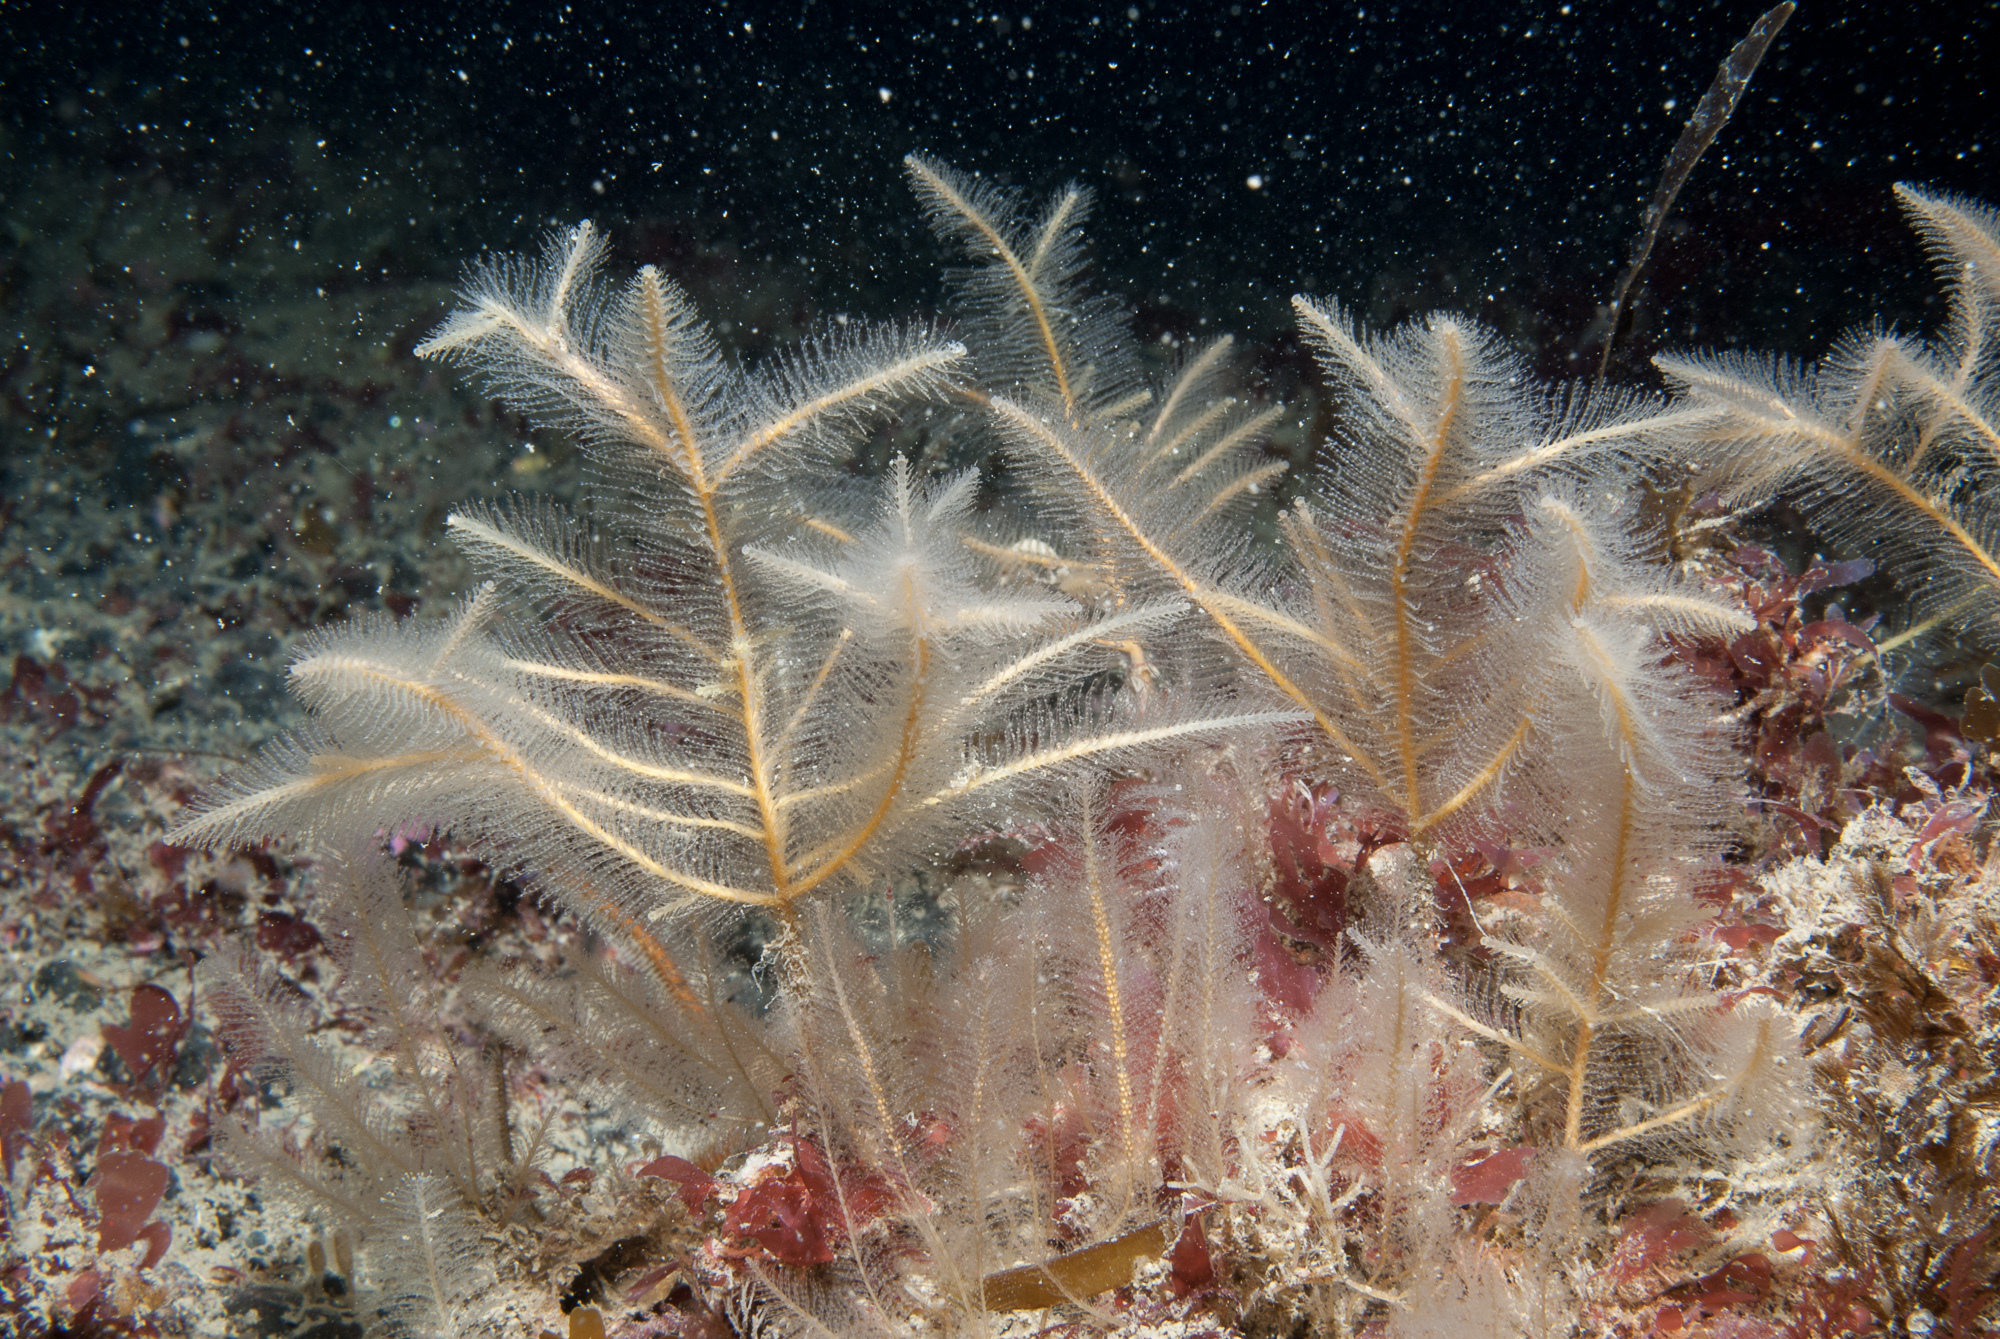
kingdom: Animalia
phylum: Cnidaria
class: Hydrozoa
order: Leptothecata
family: Plumulariidae
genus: Nemertesia
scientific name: Nemertesia ramosa
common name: Hydroid
